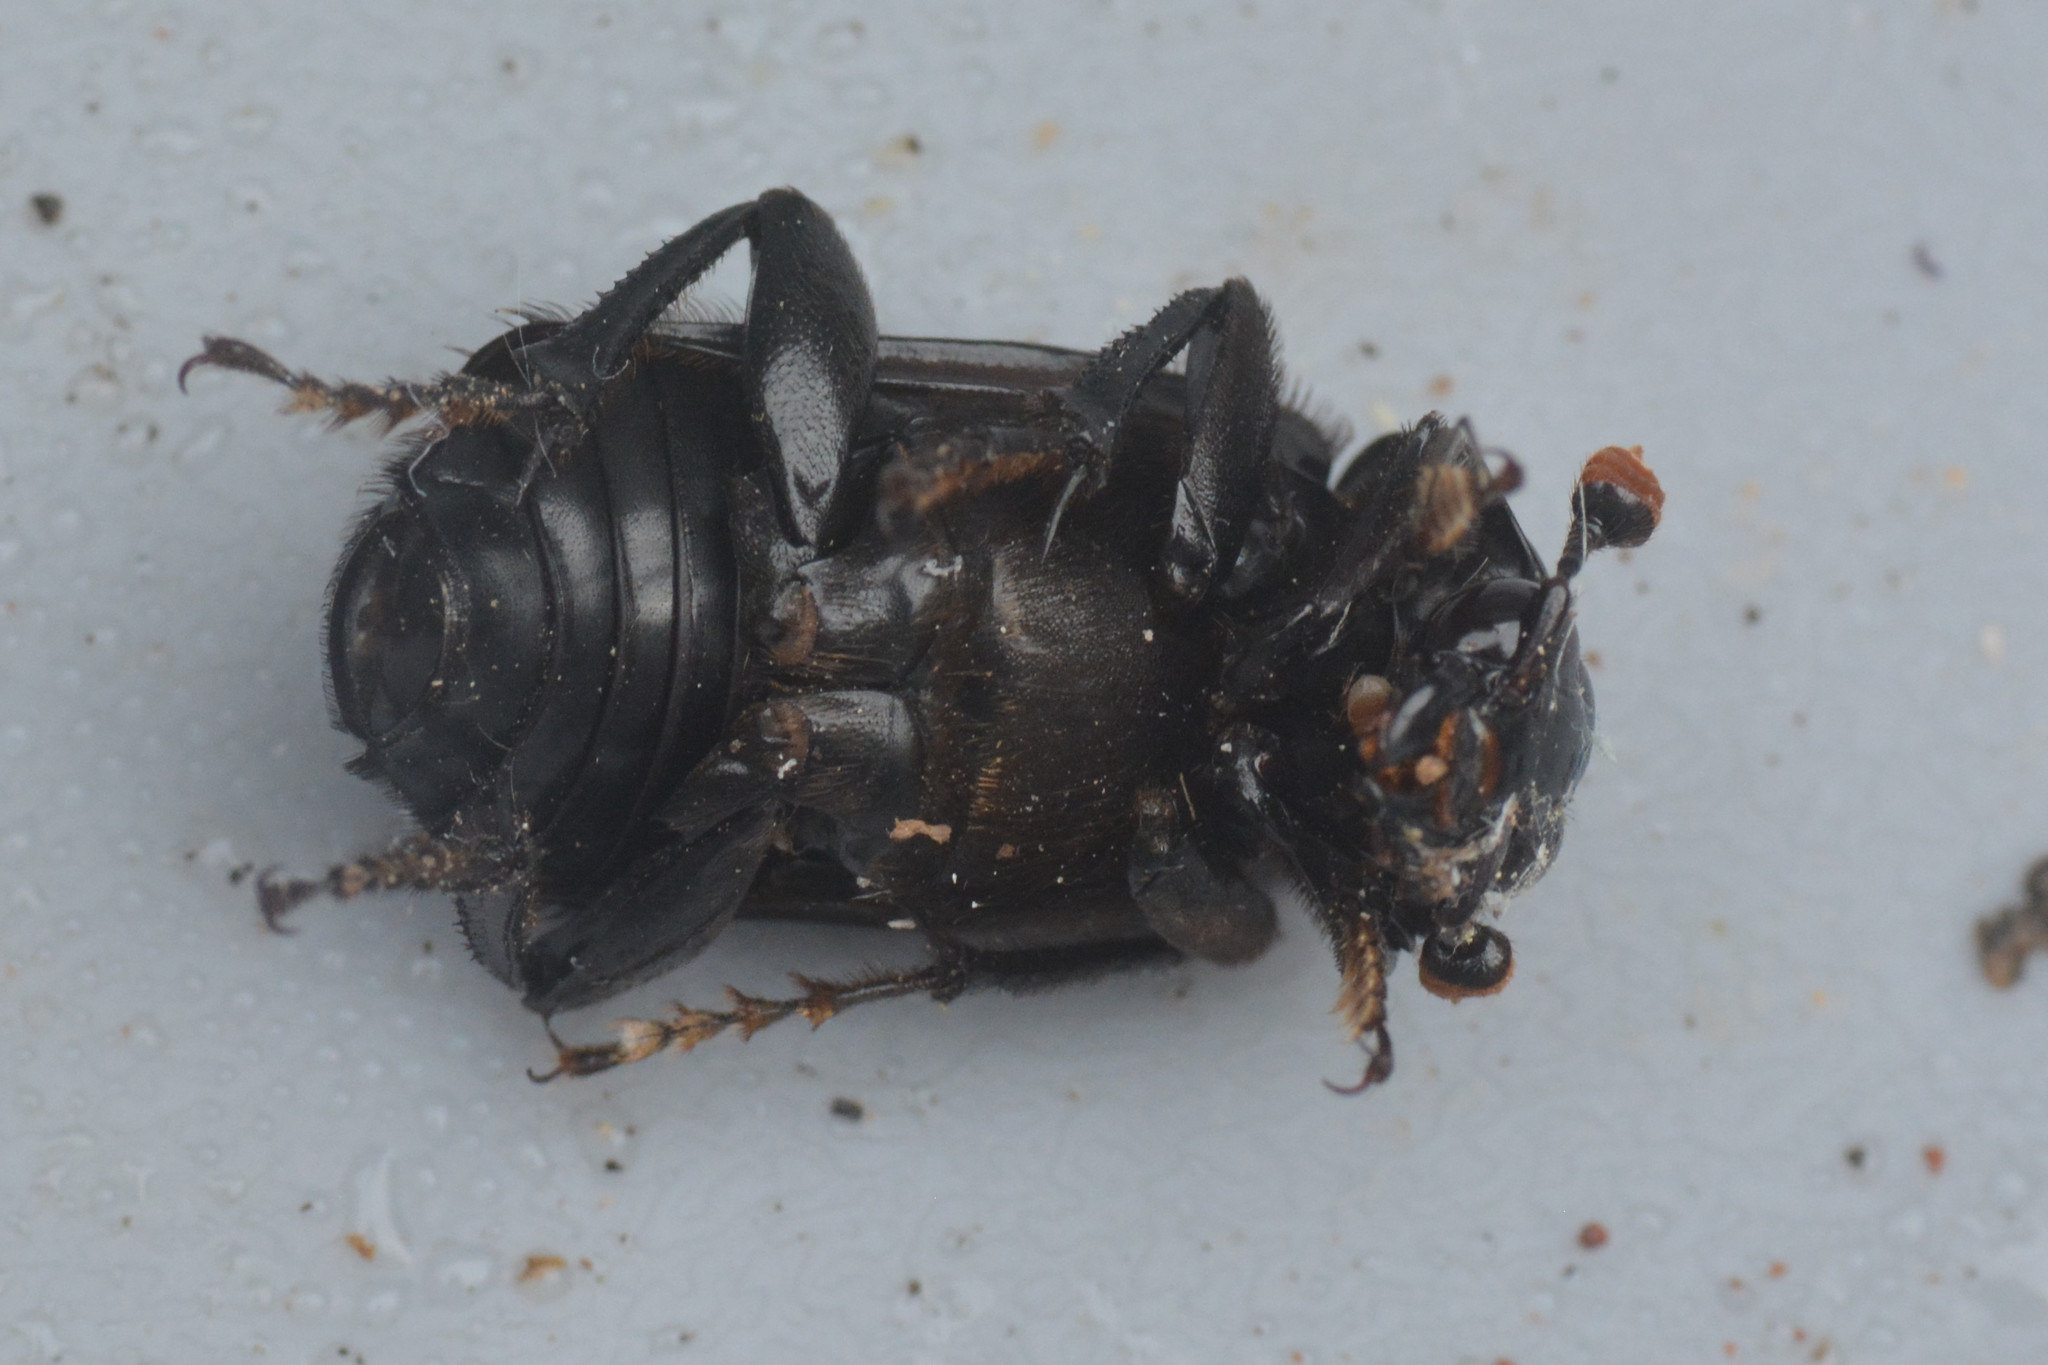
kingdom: Animalia
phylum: Arthropoda
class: Insecta
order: Coleoptera
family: Staphylinidae
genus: Nicrophorus
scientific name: Nicrophorus humator
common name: Black sexton beetle
